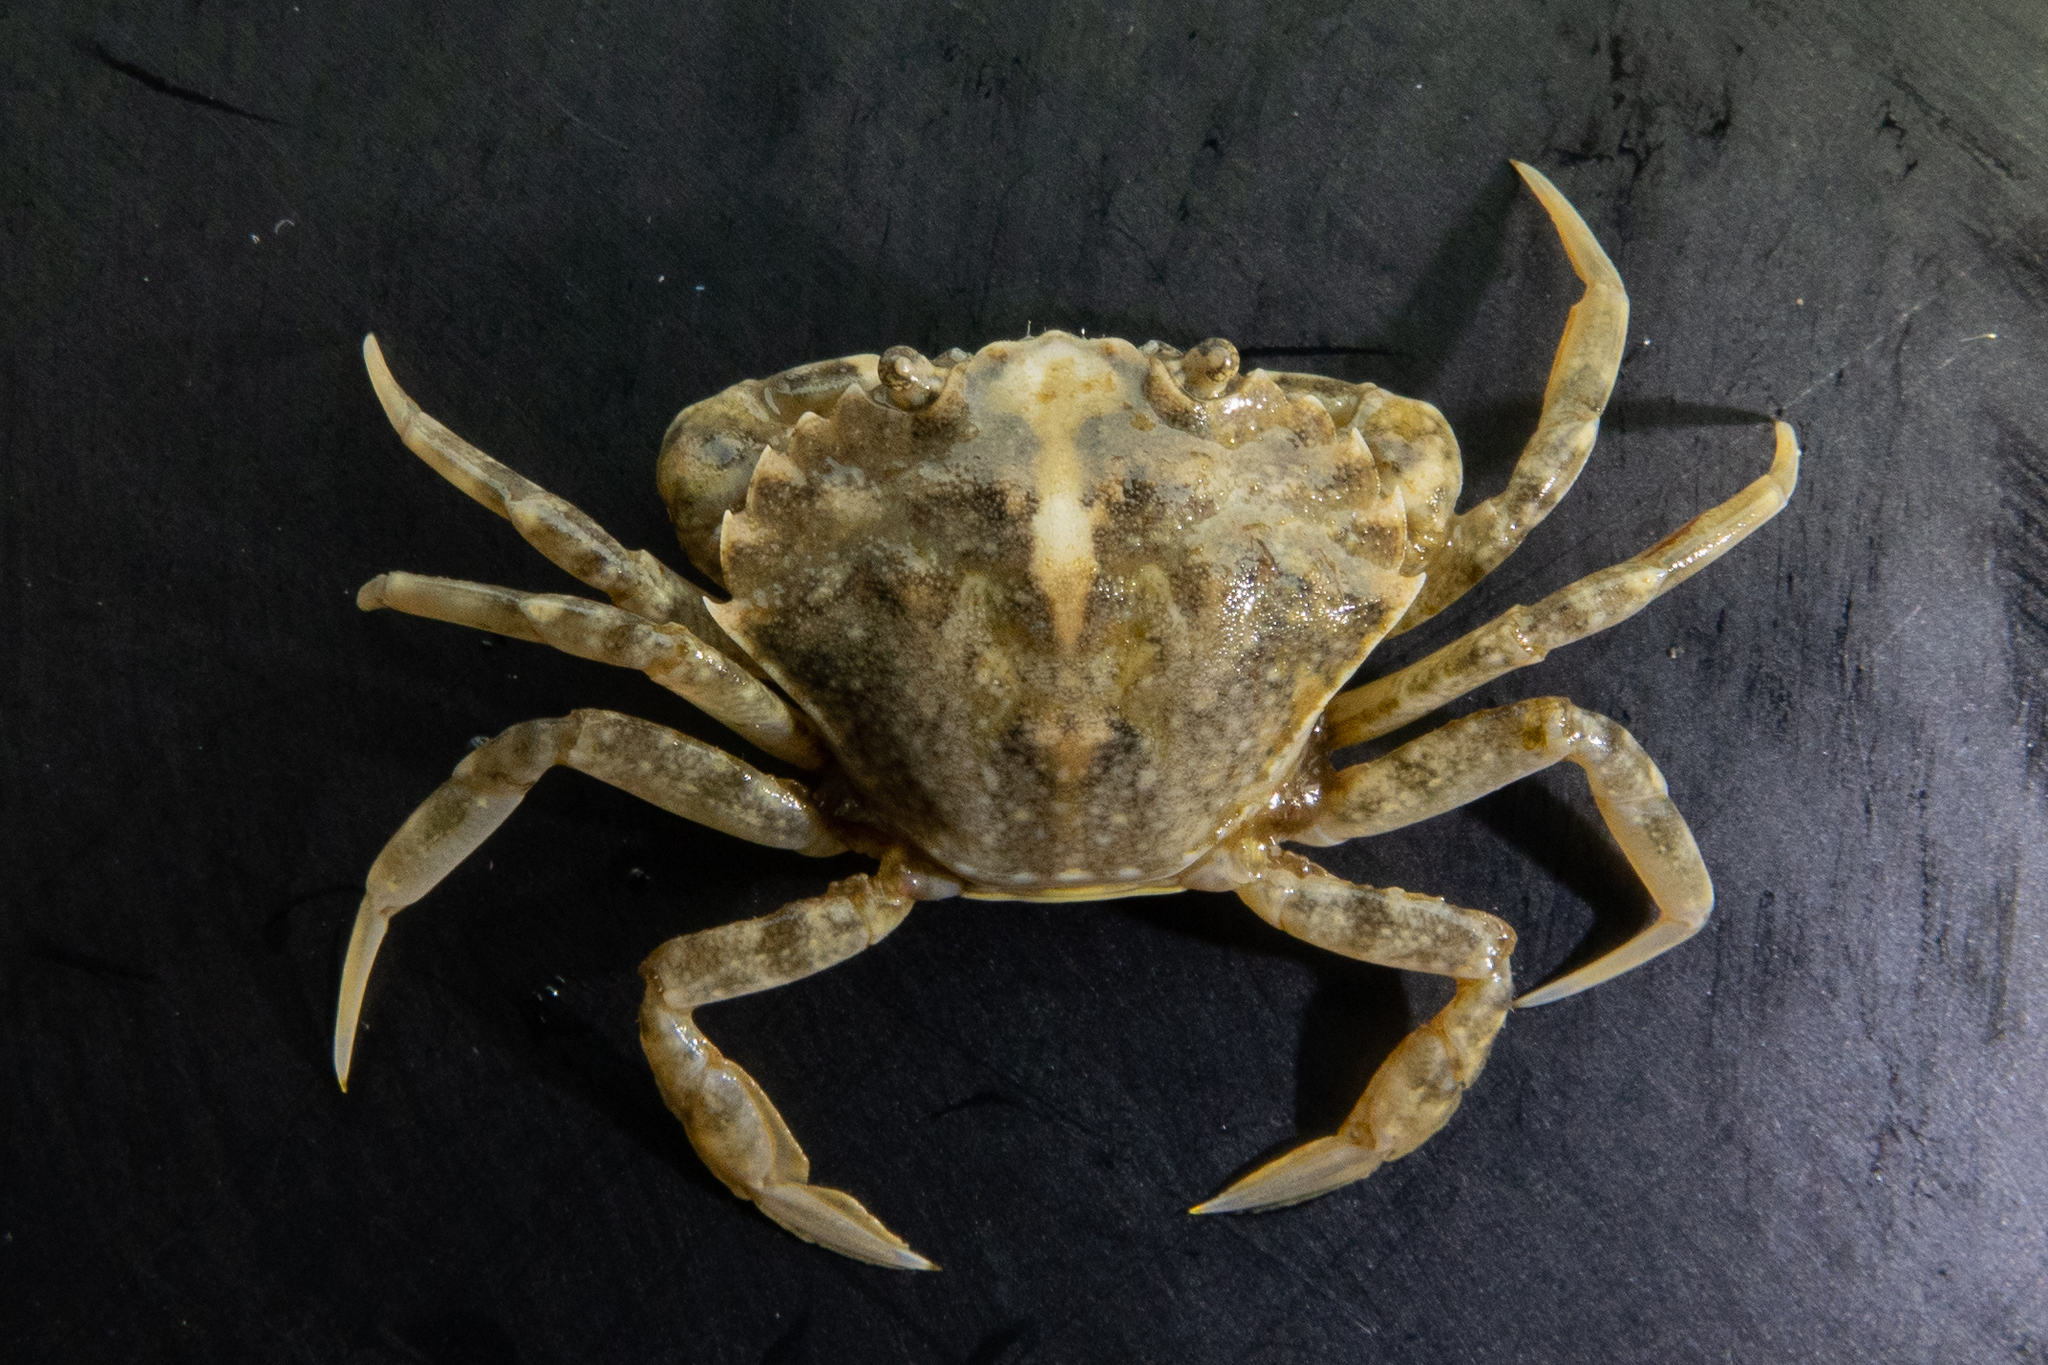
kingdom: Animalia
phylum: Arthropoda
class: Malacostraca
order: Decapoda
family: Carcinidae
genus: Carcinus
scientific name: Carcinus maenas
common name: European green crab
